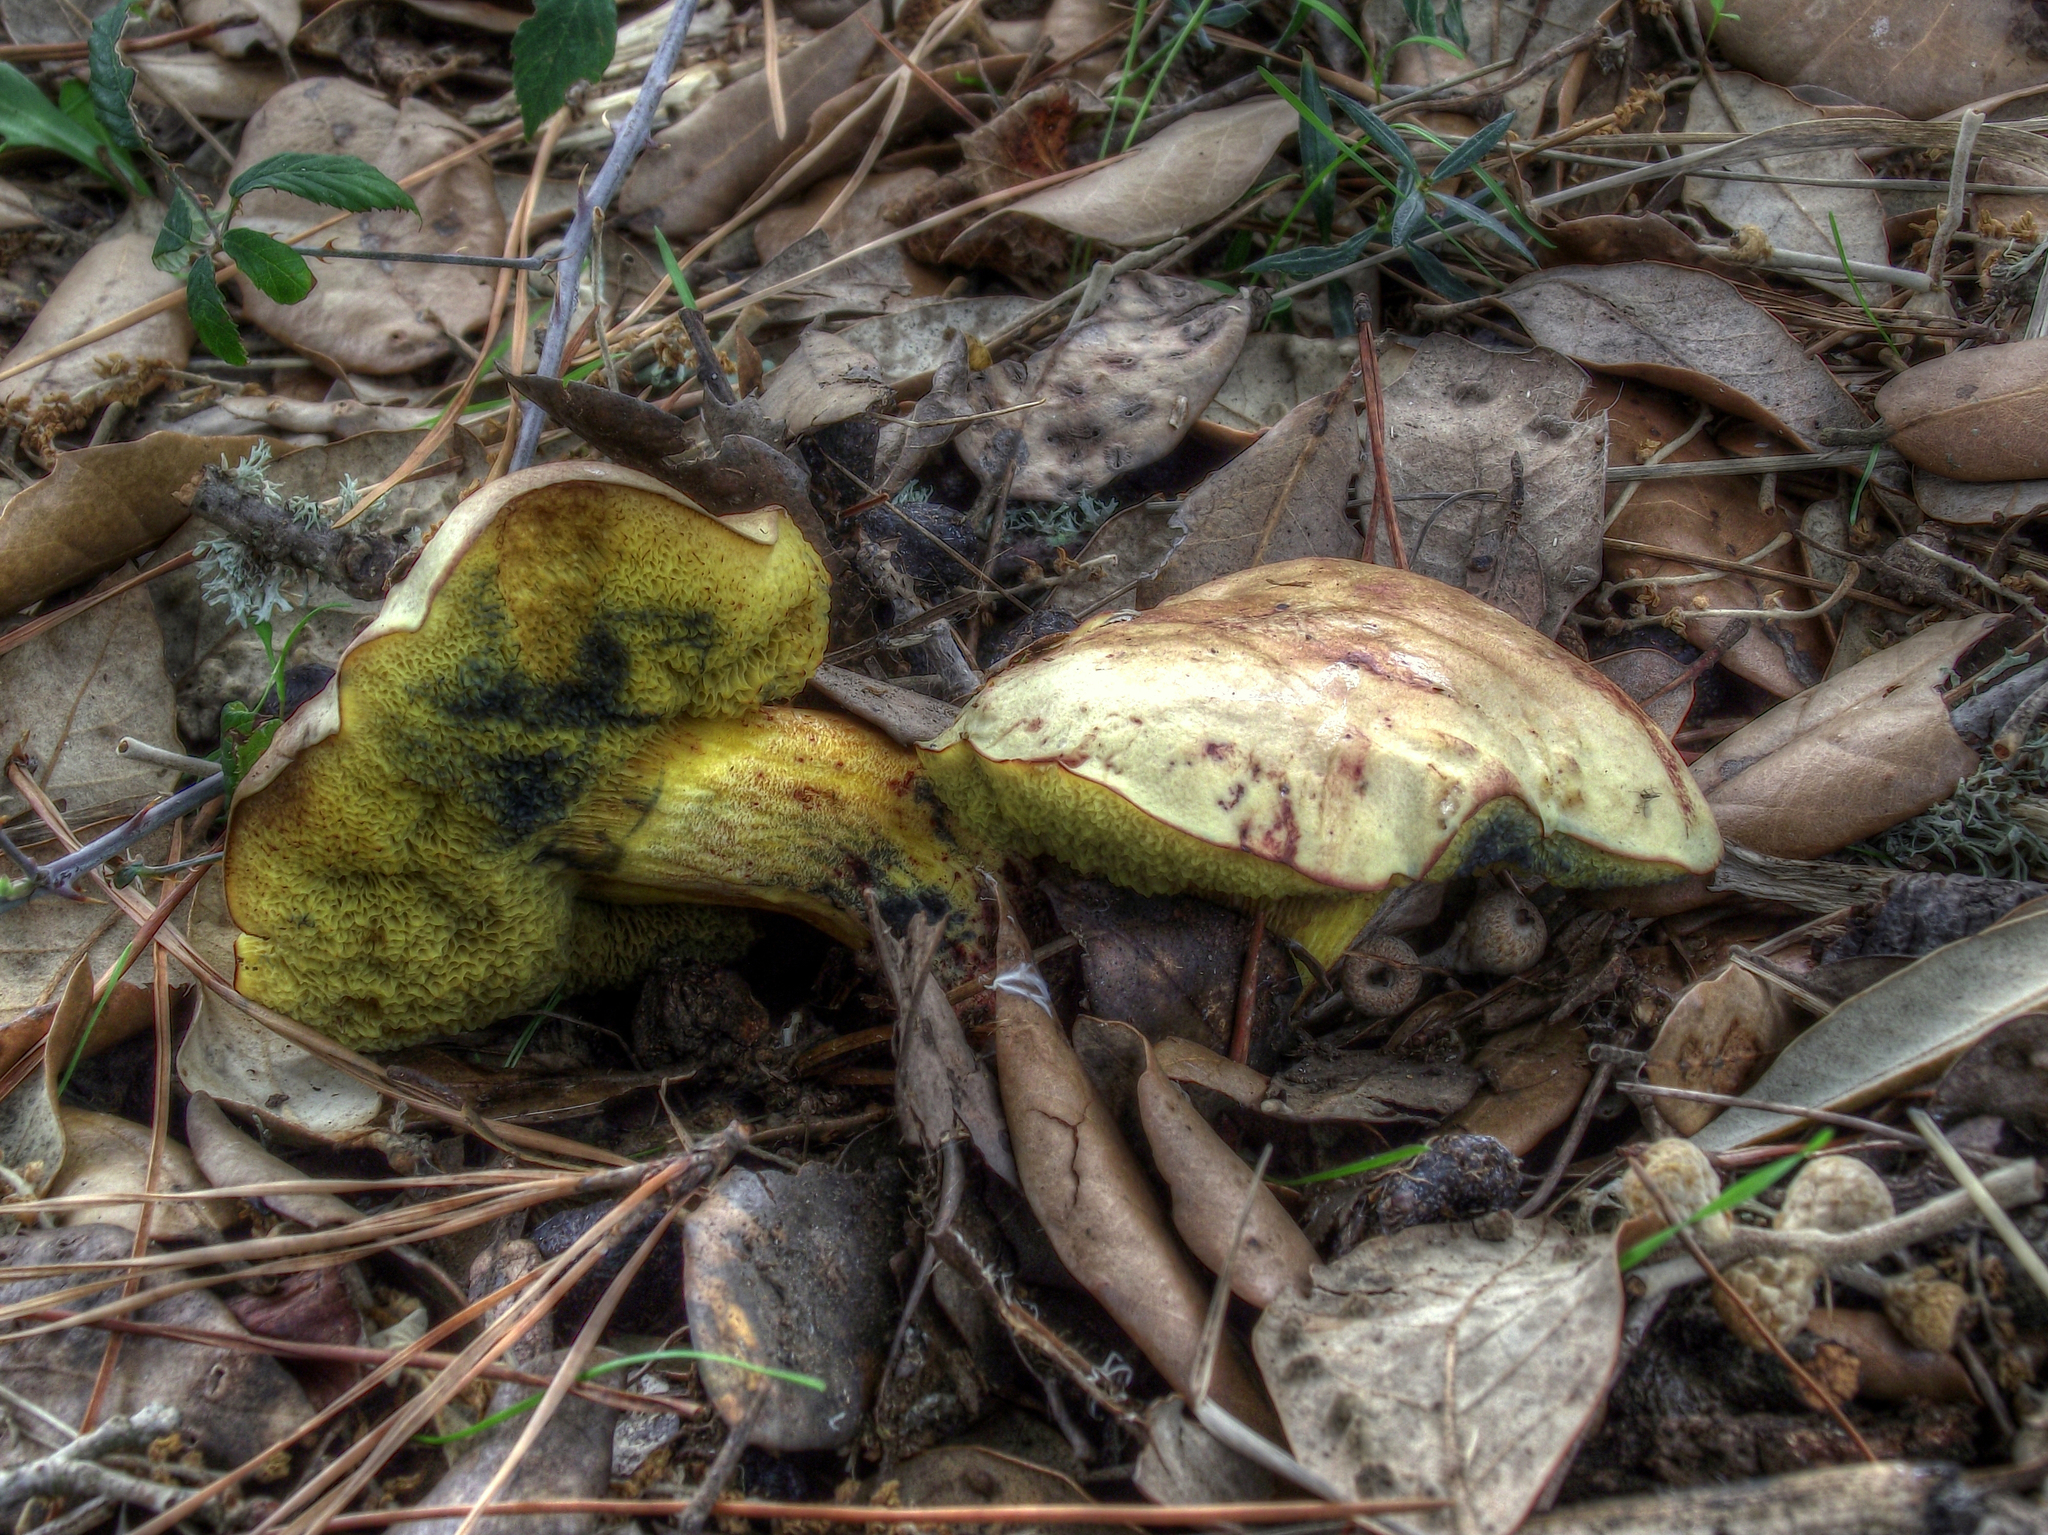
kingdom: Fungi
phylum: Basidiomycota
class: Agaricomycetes
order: Boletales
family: Boletaceae
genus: Pulchroboletus
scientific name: Pulchroboletus roseoalbidus
